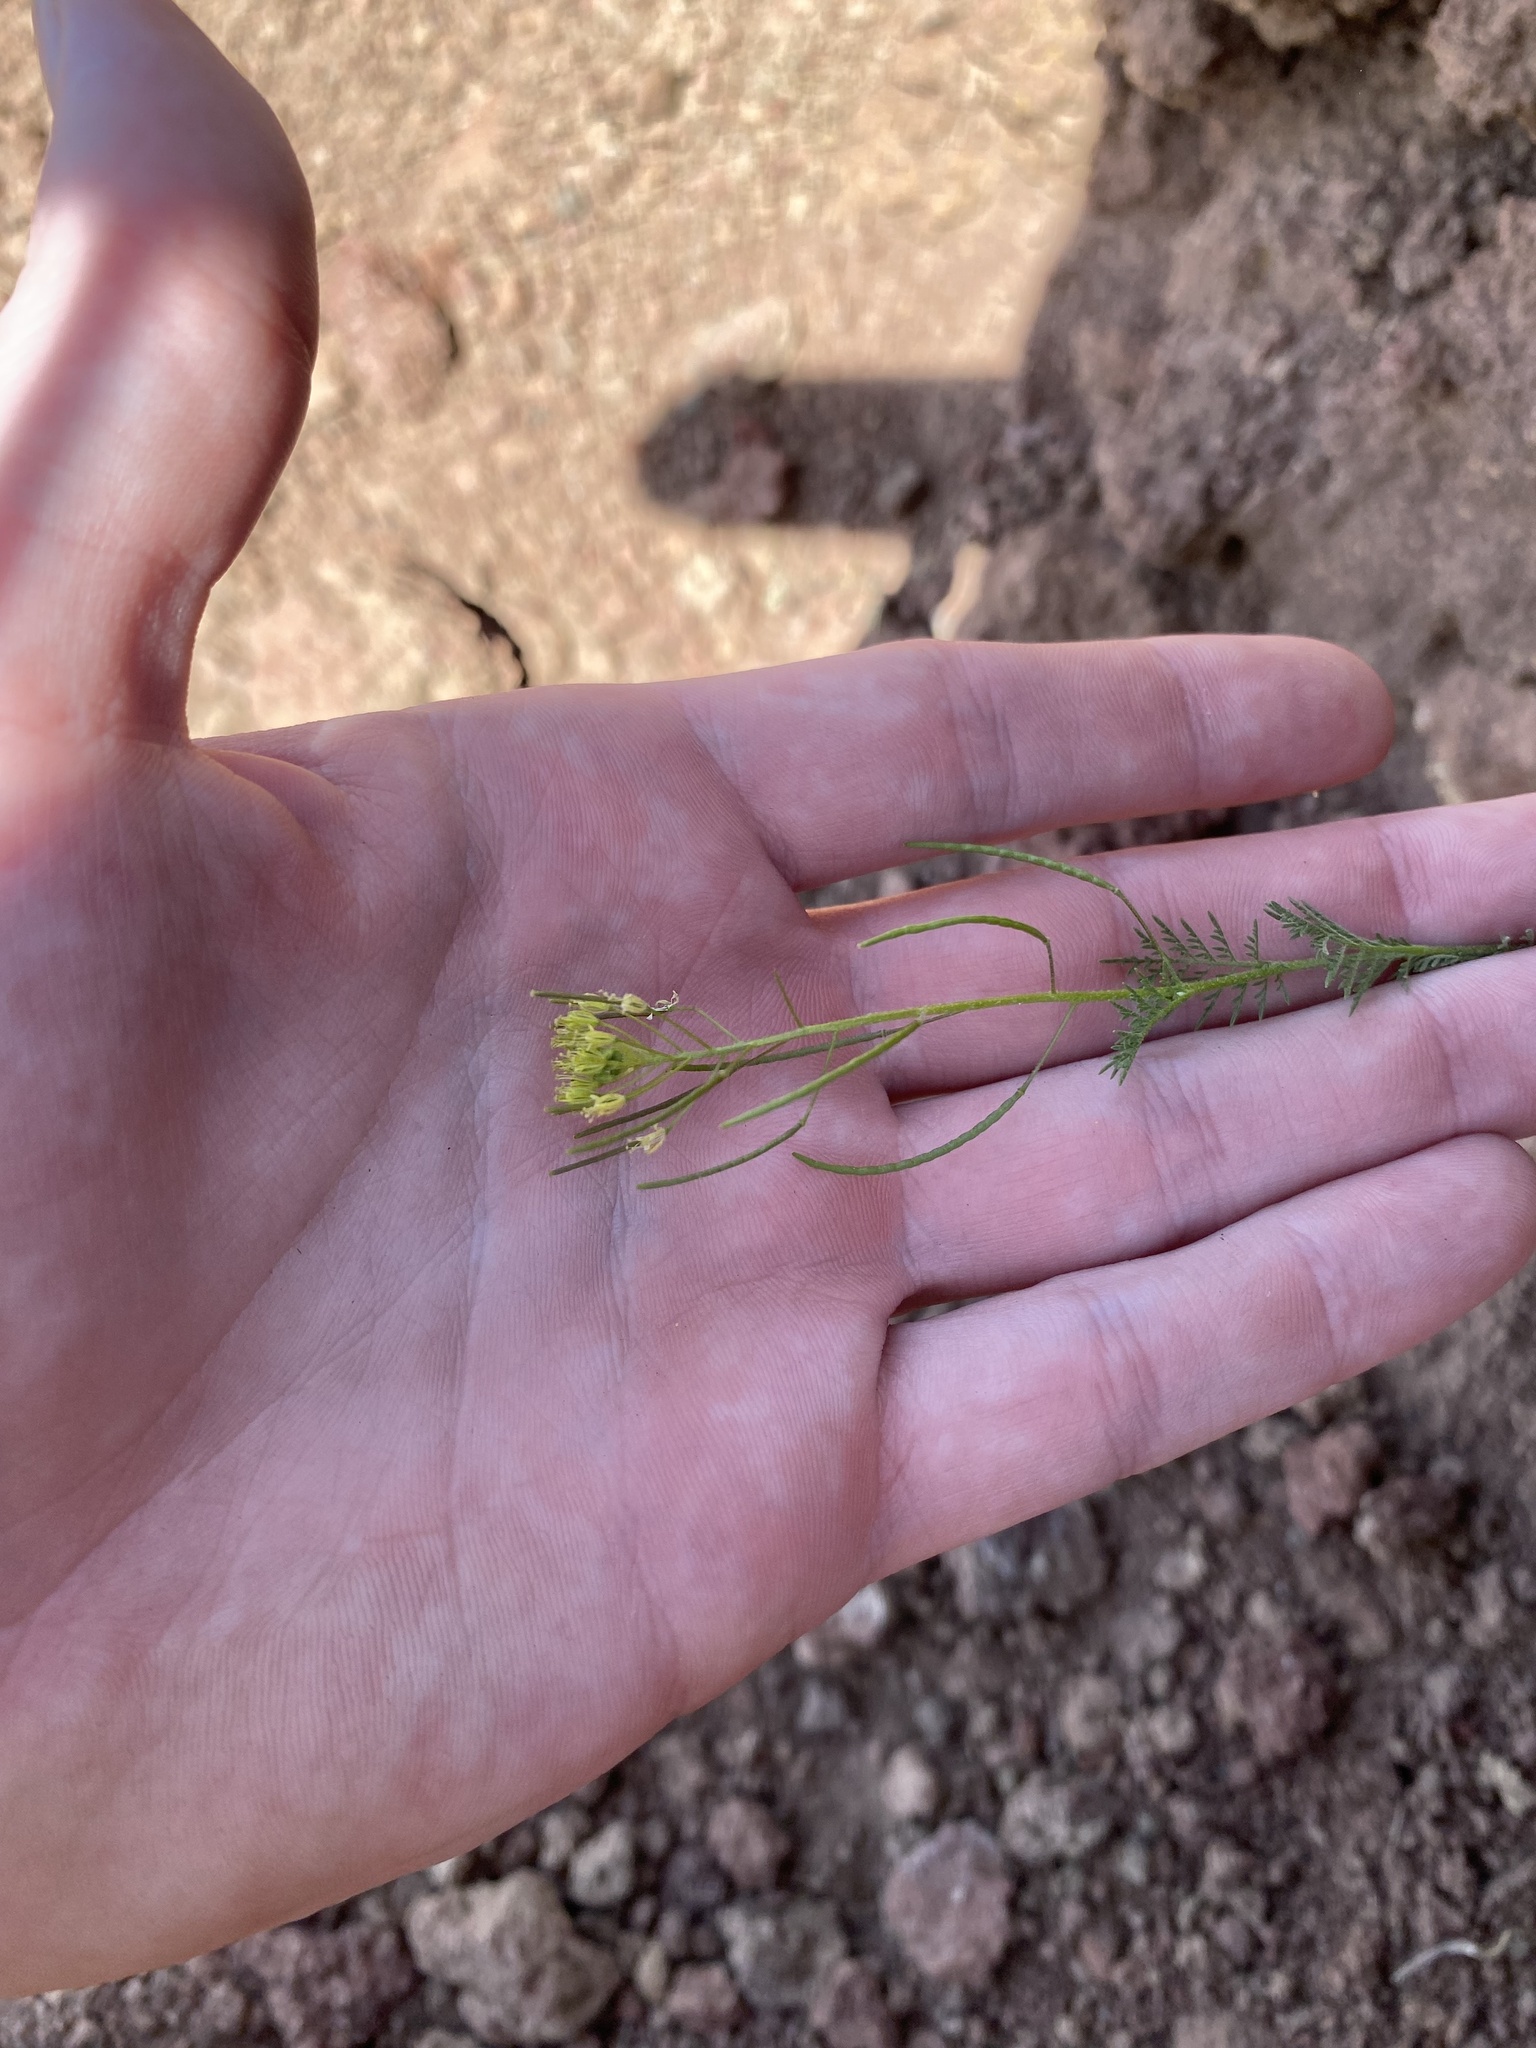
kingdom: Plantae
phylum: Tracheophyta
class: Magnoliopsida
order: Brassicales
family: Brassicaceae
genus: Descurainia
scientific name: Descurainia sophia
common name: Flixweed
